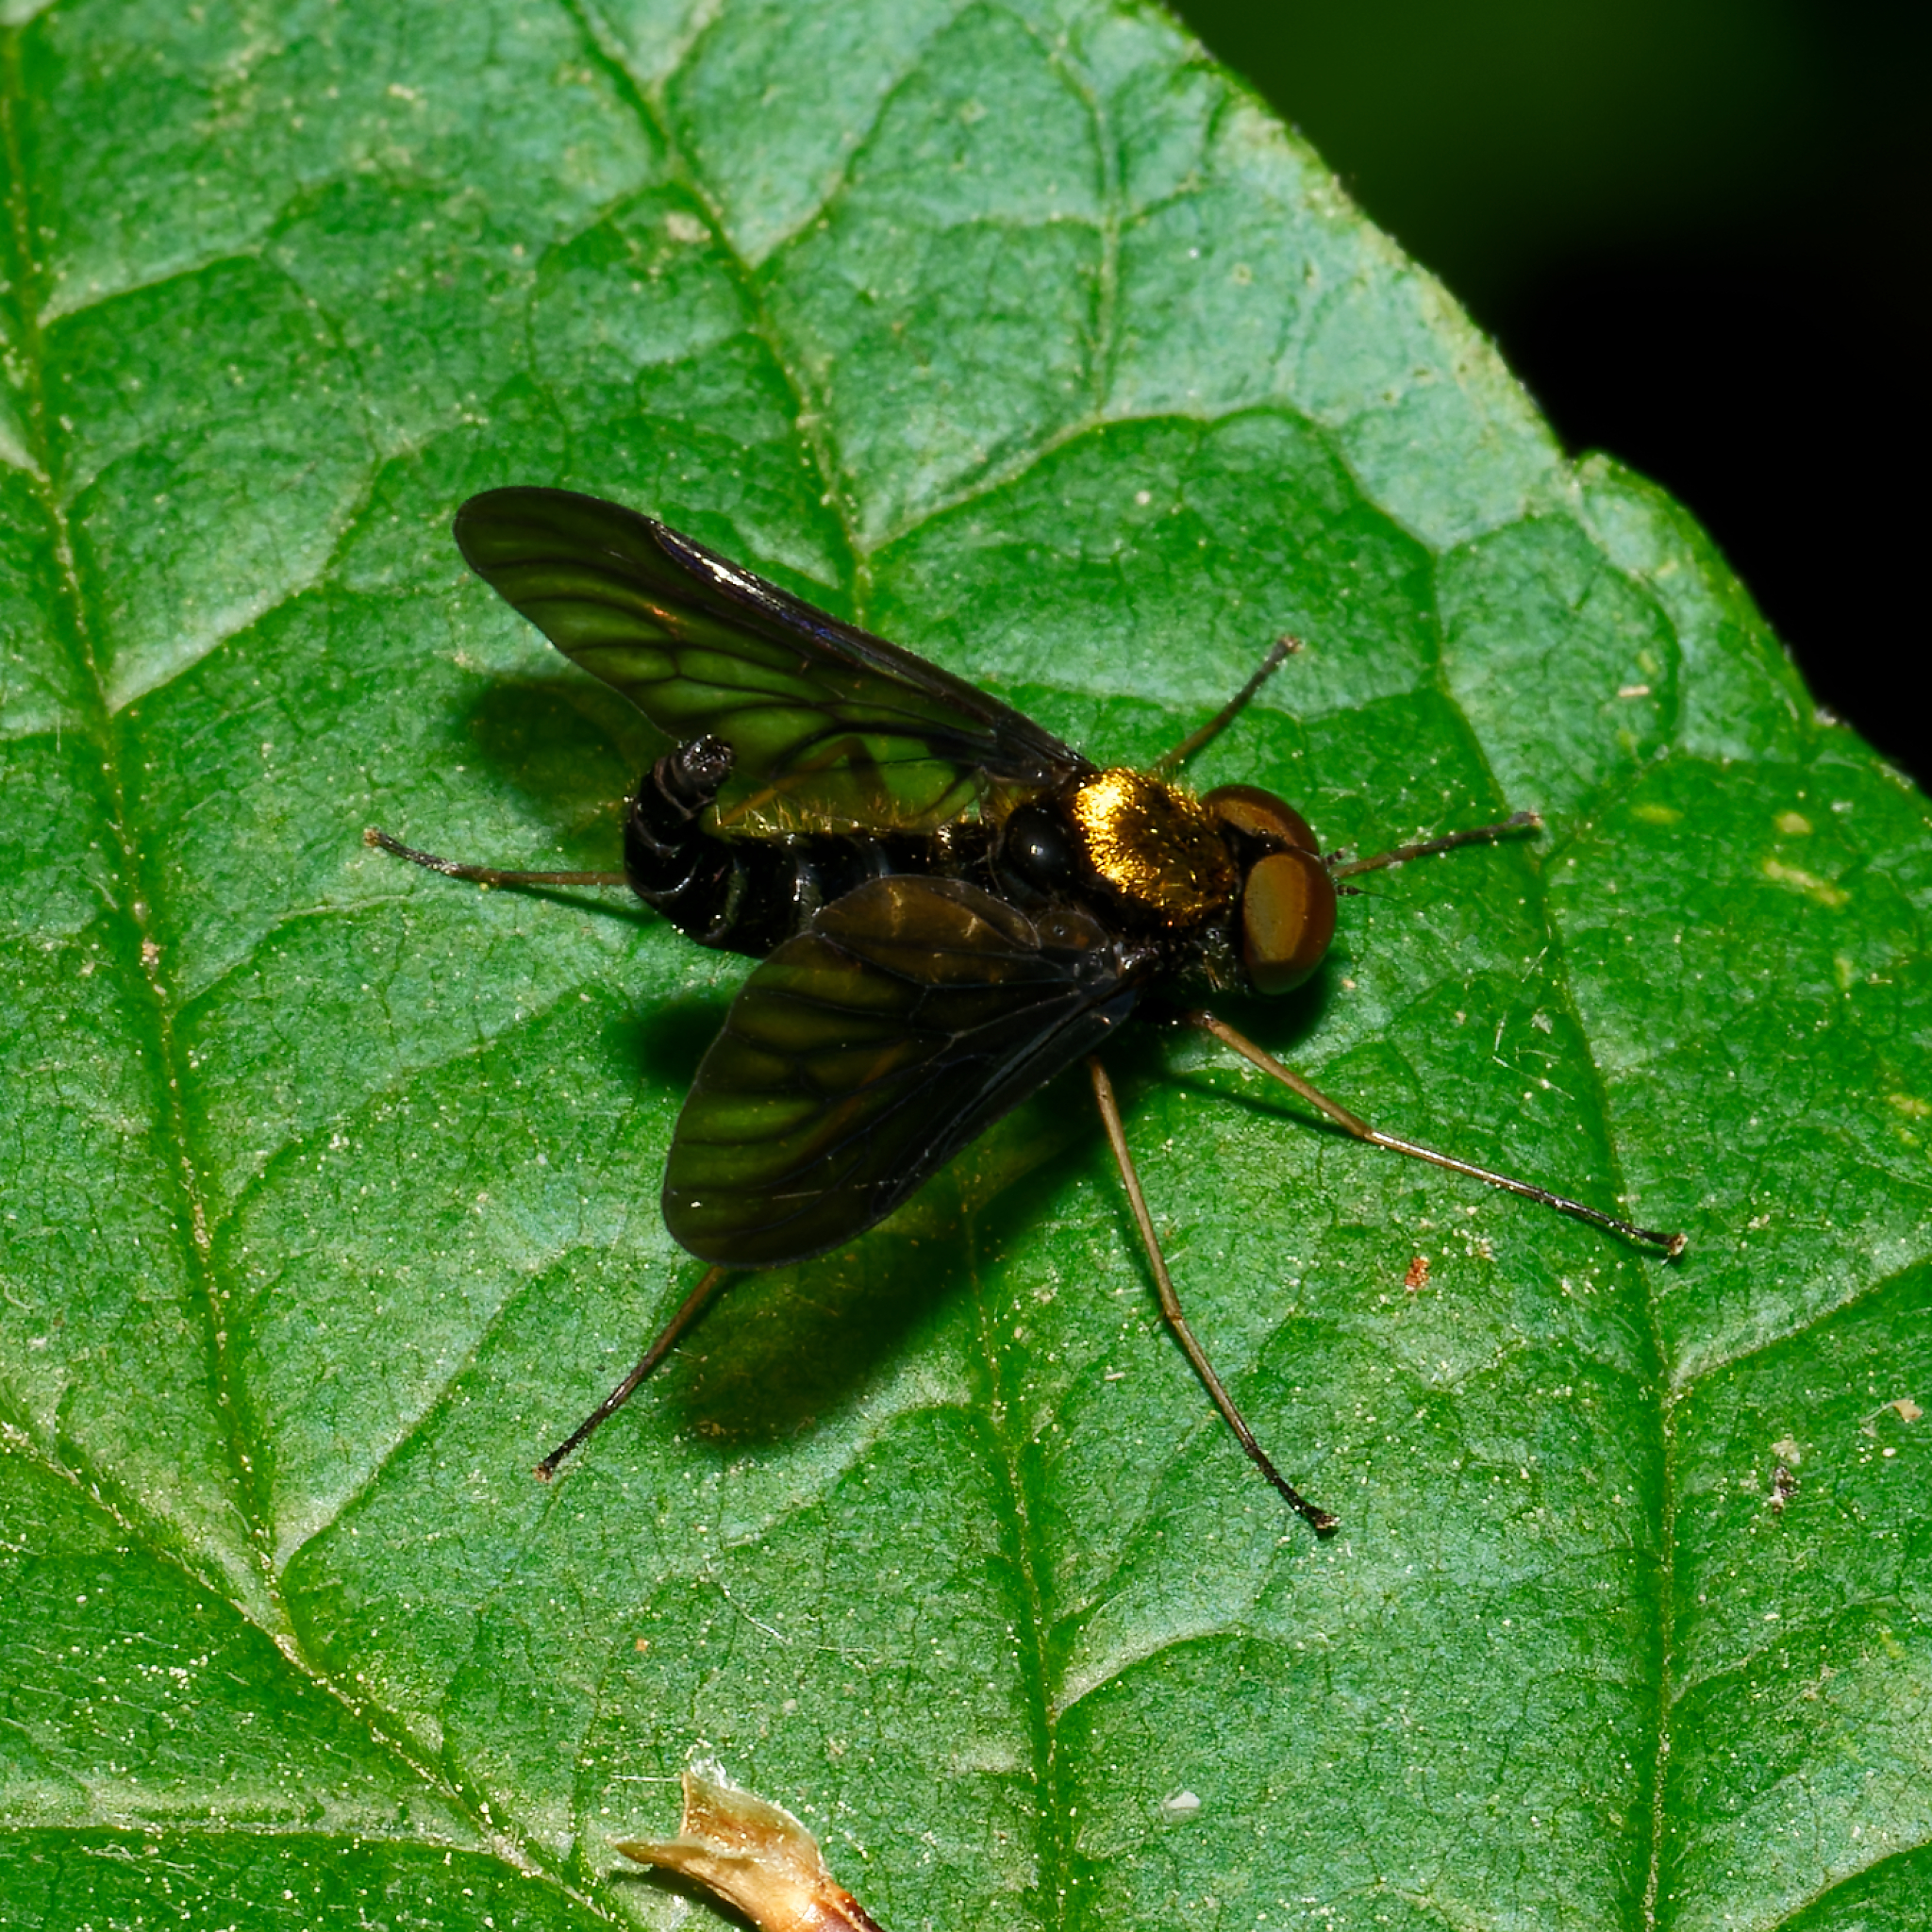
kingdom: Animalia
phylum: Arthropoda
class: Insecta
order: Diptera
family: Rhagionidae
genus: Chrysopilus
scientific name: Chrysopilus thoracicus
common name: Golden-backed snipe fly
